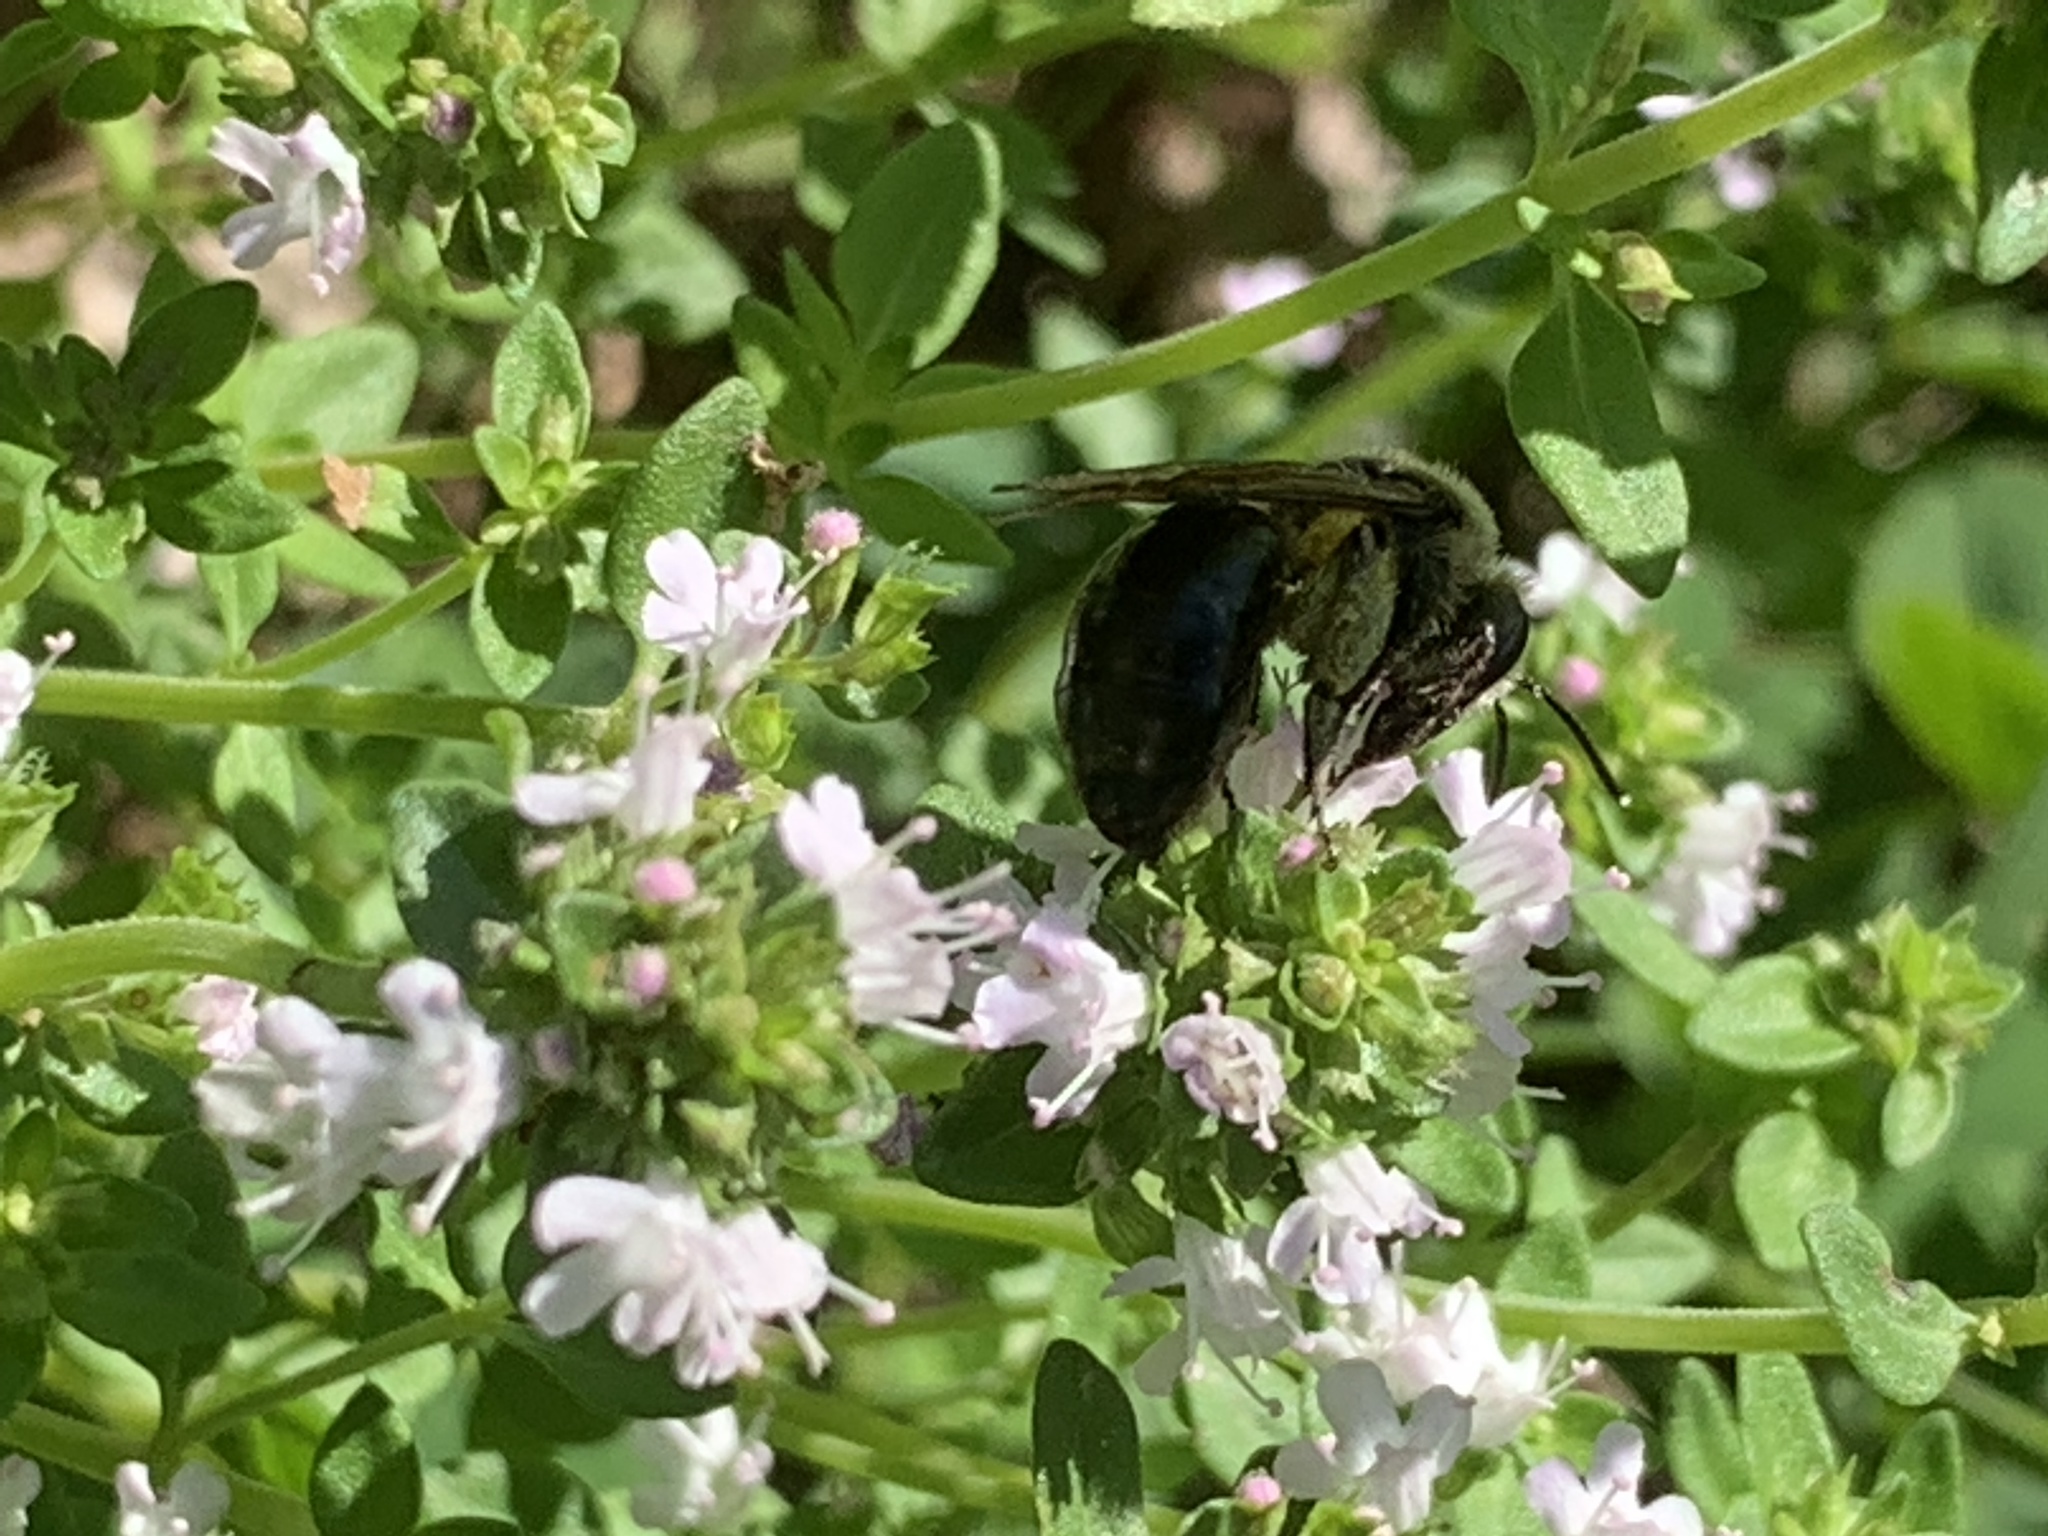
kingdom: Animalia
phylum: Arthropoda
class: Insecta
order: Hymenoptera
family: Andrenidae
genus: Andrena
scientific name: Andrena
